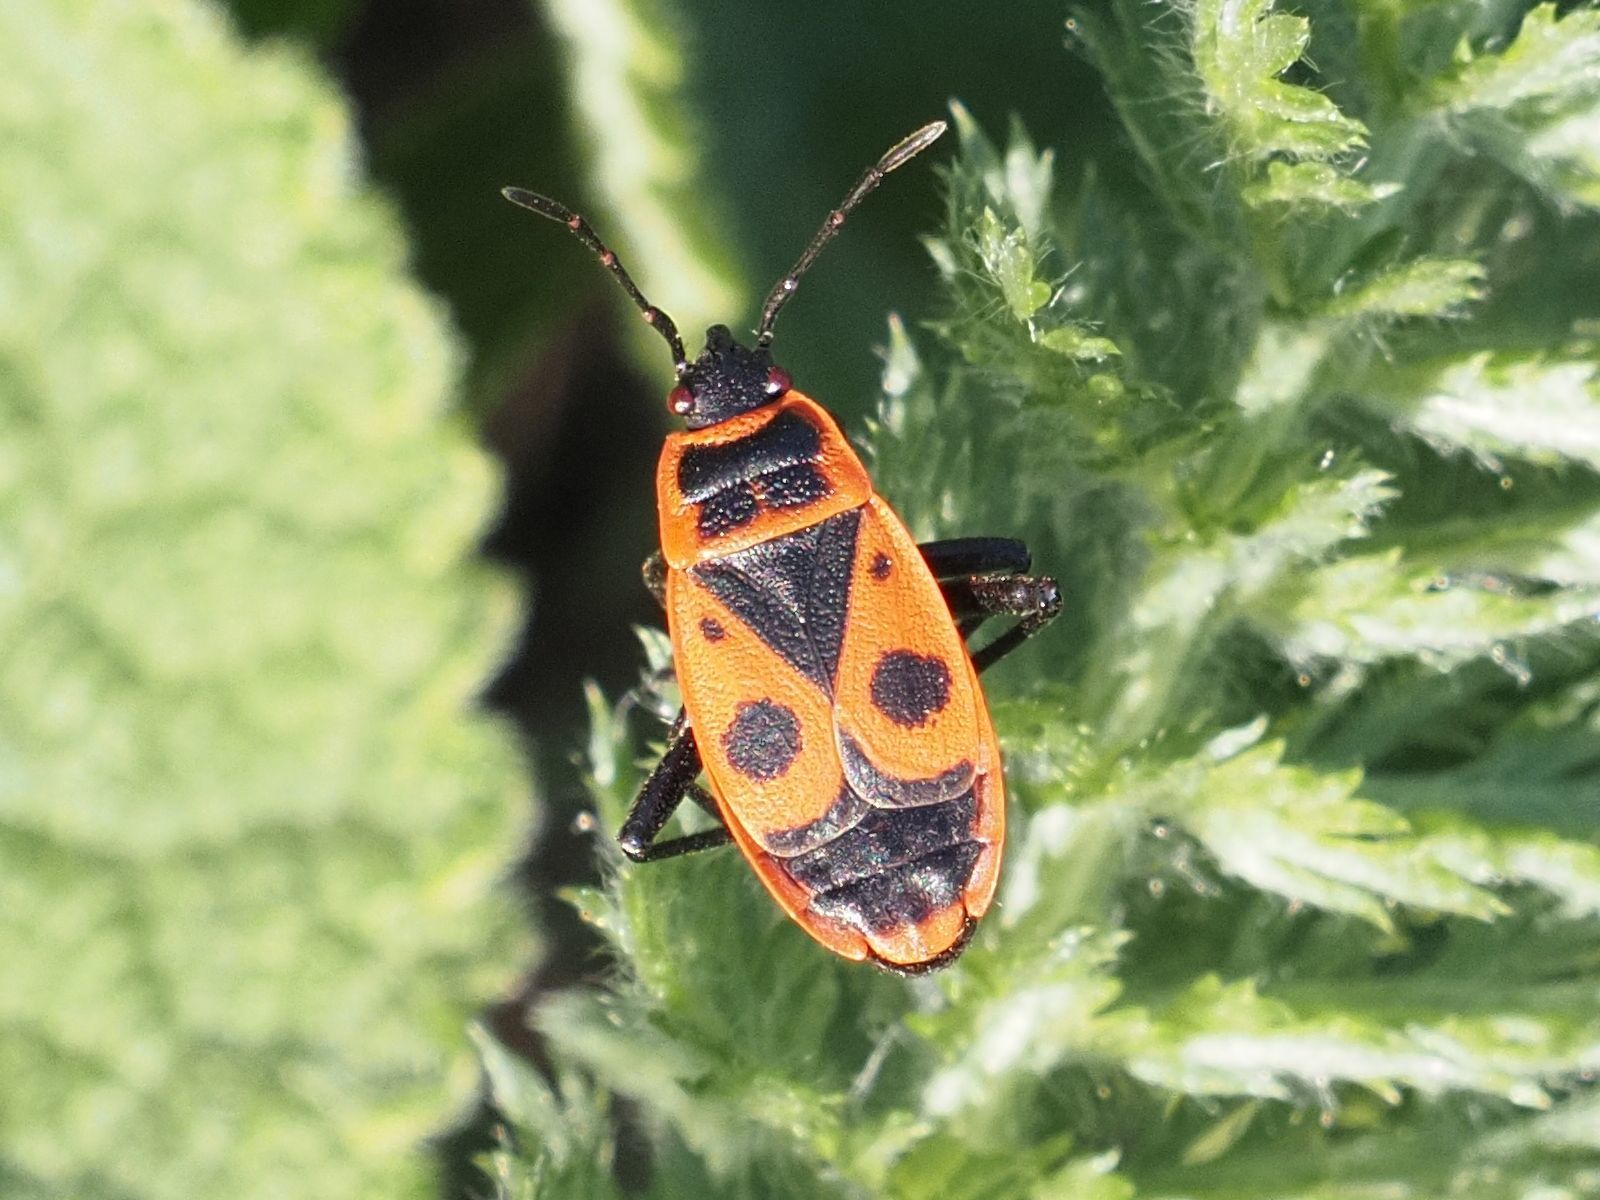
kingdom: Animalia
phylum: Arthropoda
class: Insecta
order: Hemiptera
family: Pyrrhocoridae
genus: Pyrrhocoris
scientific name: Pyrrhocoris apterus
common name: Firebug
